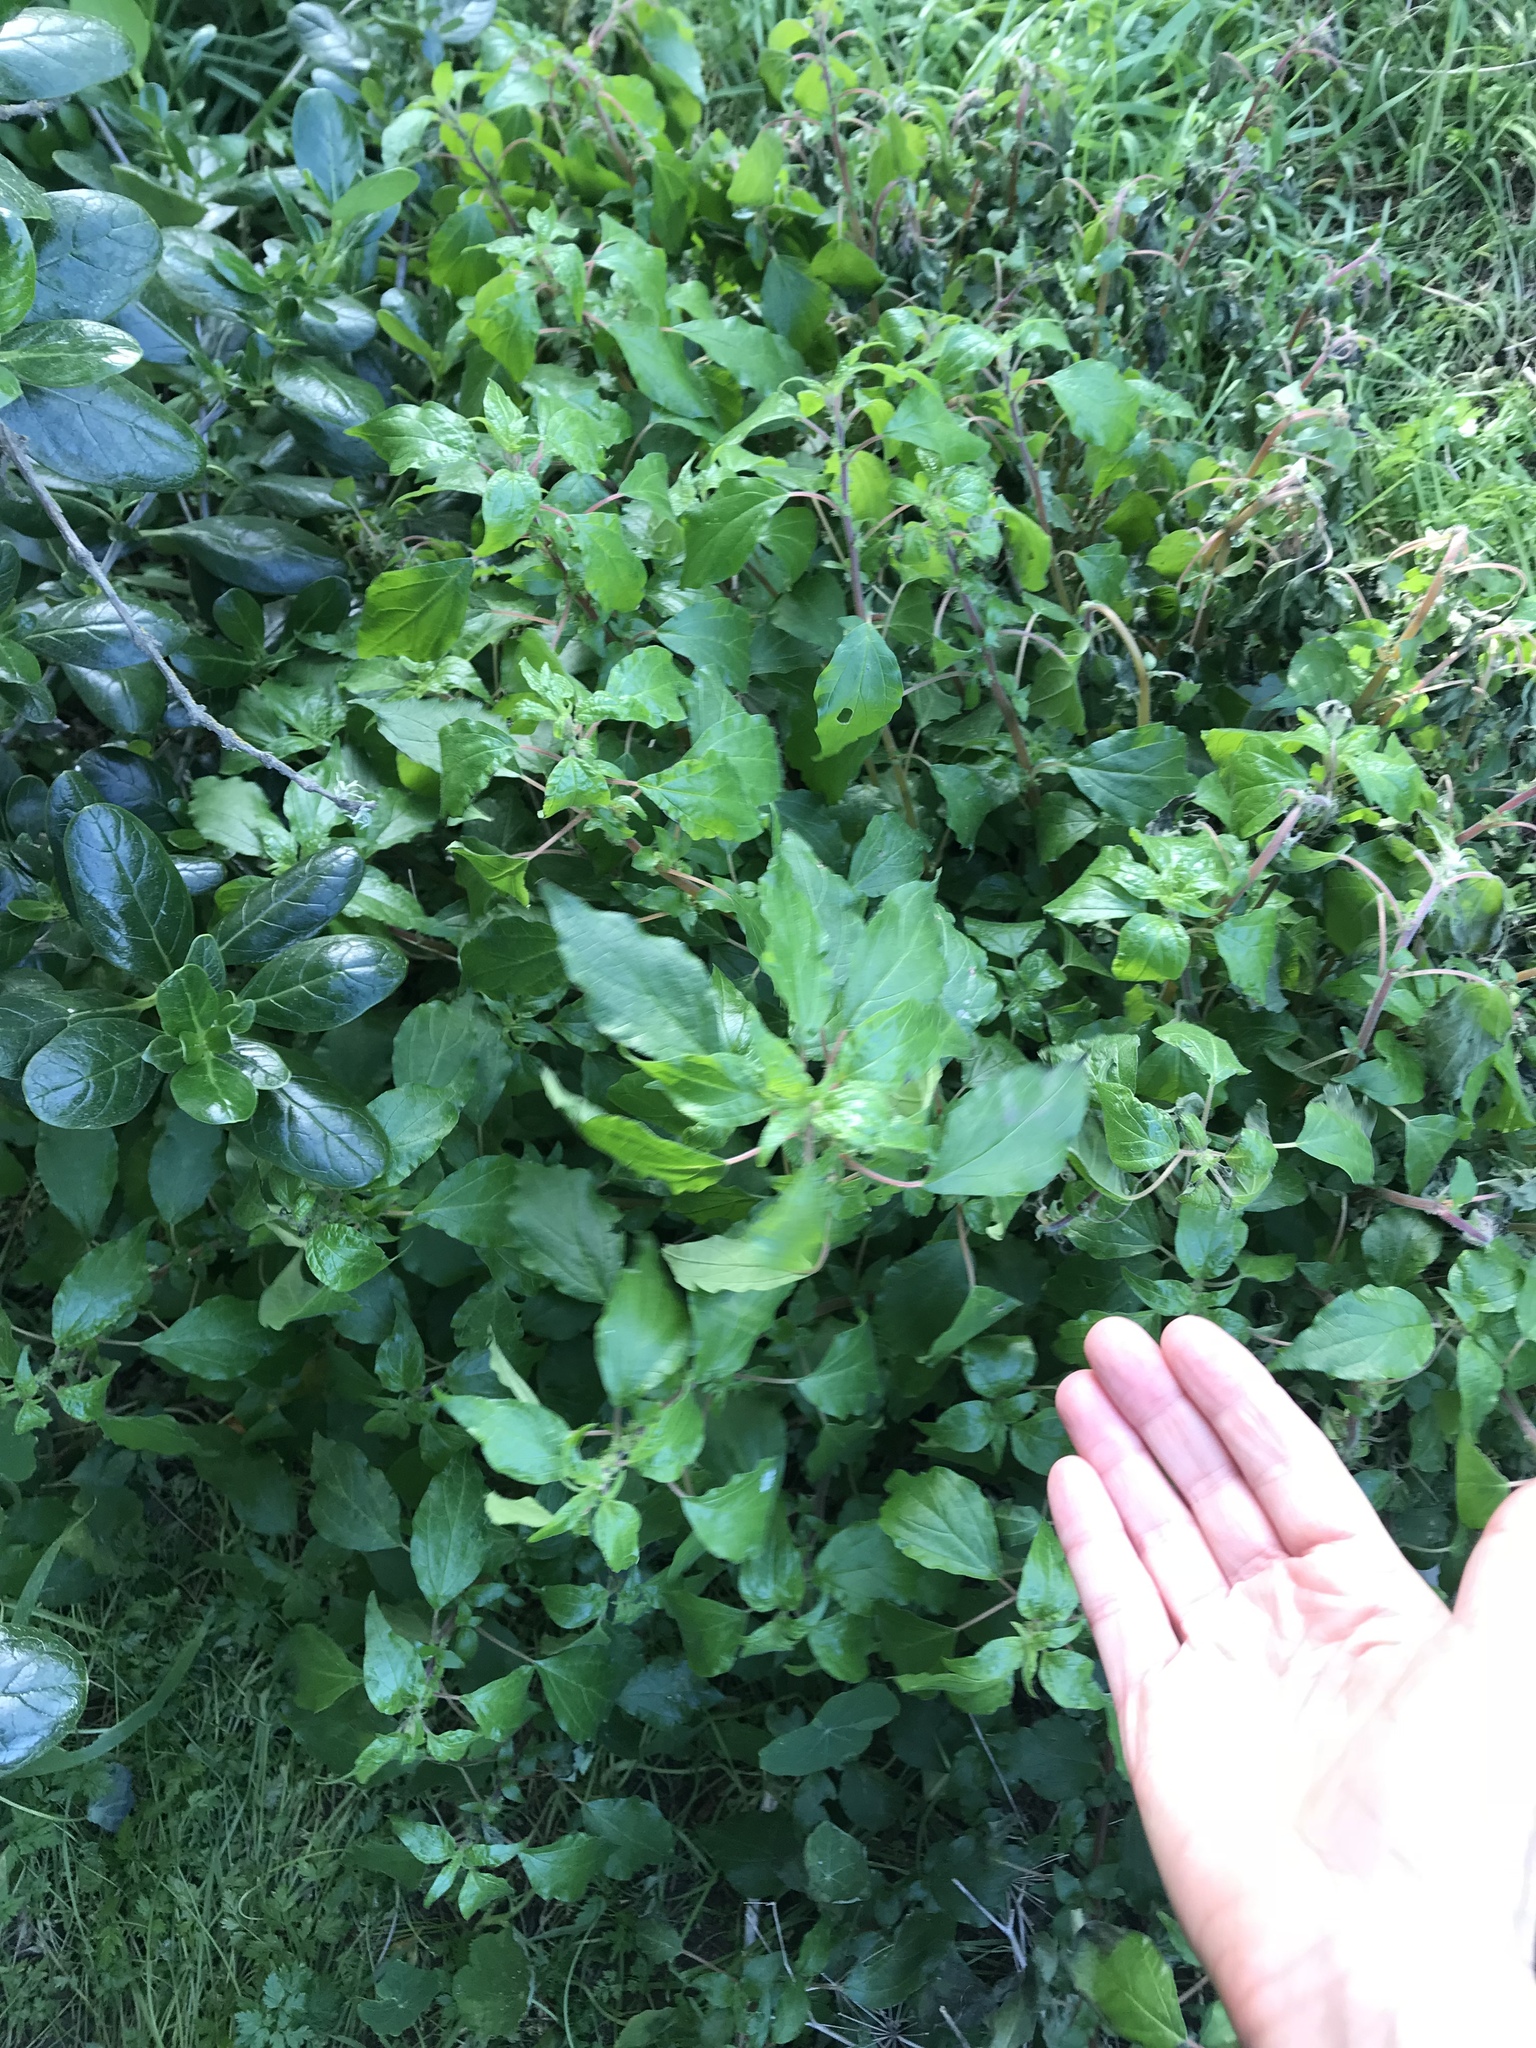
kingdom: Plantae
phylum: Tracheophyta
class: Magnoliopsida
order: Rosales
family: Urticaceae
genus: Parietaria
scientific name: Parietaria judaica
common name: Pellitory-of-the-wall
